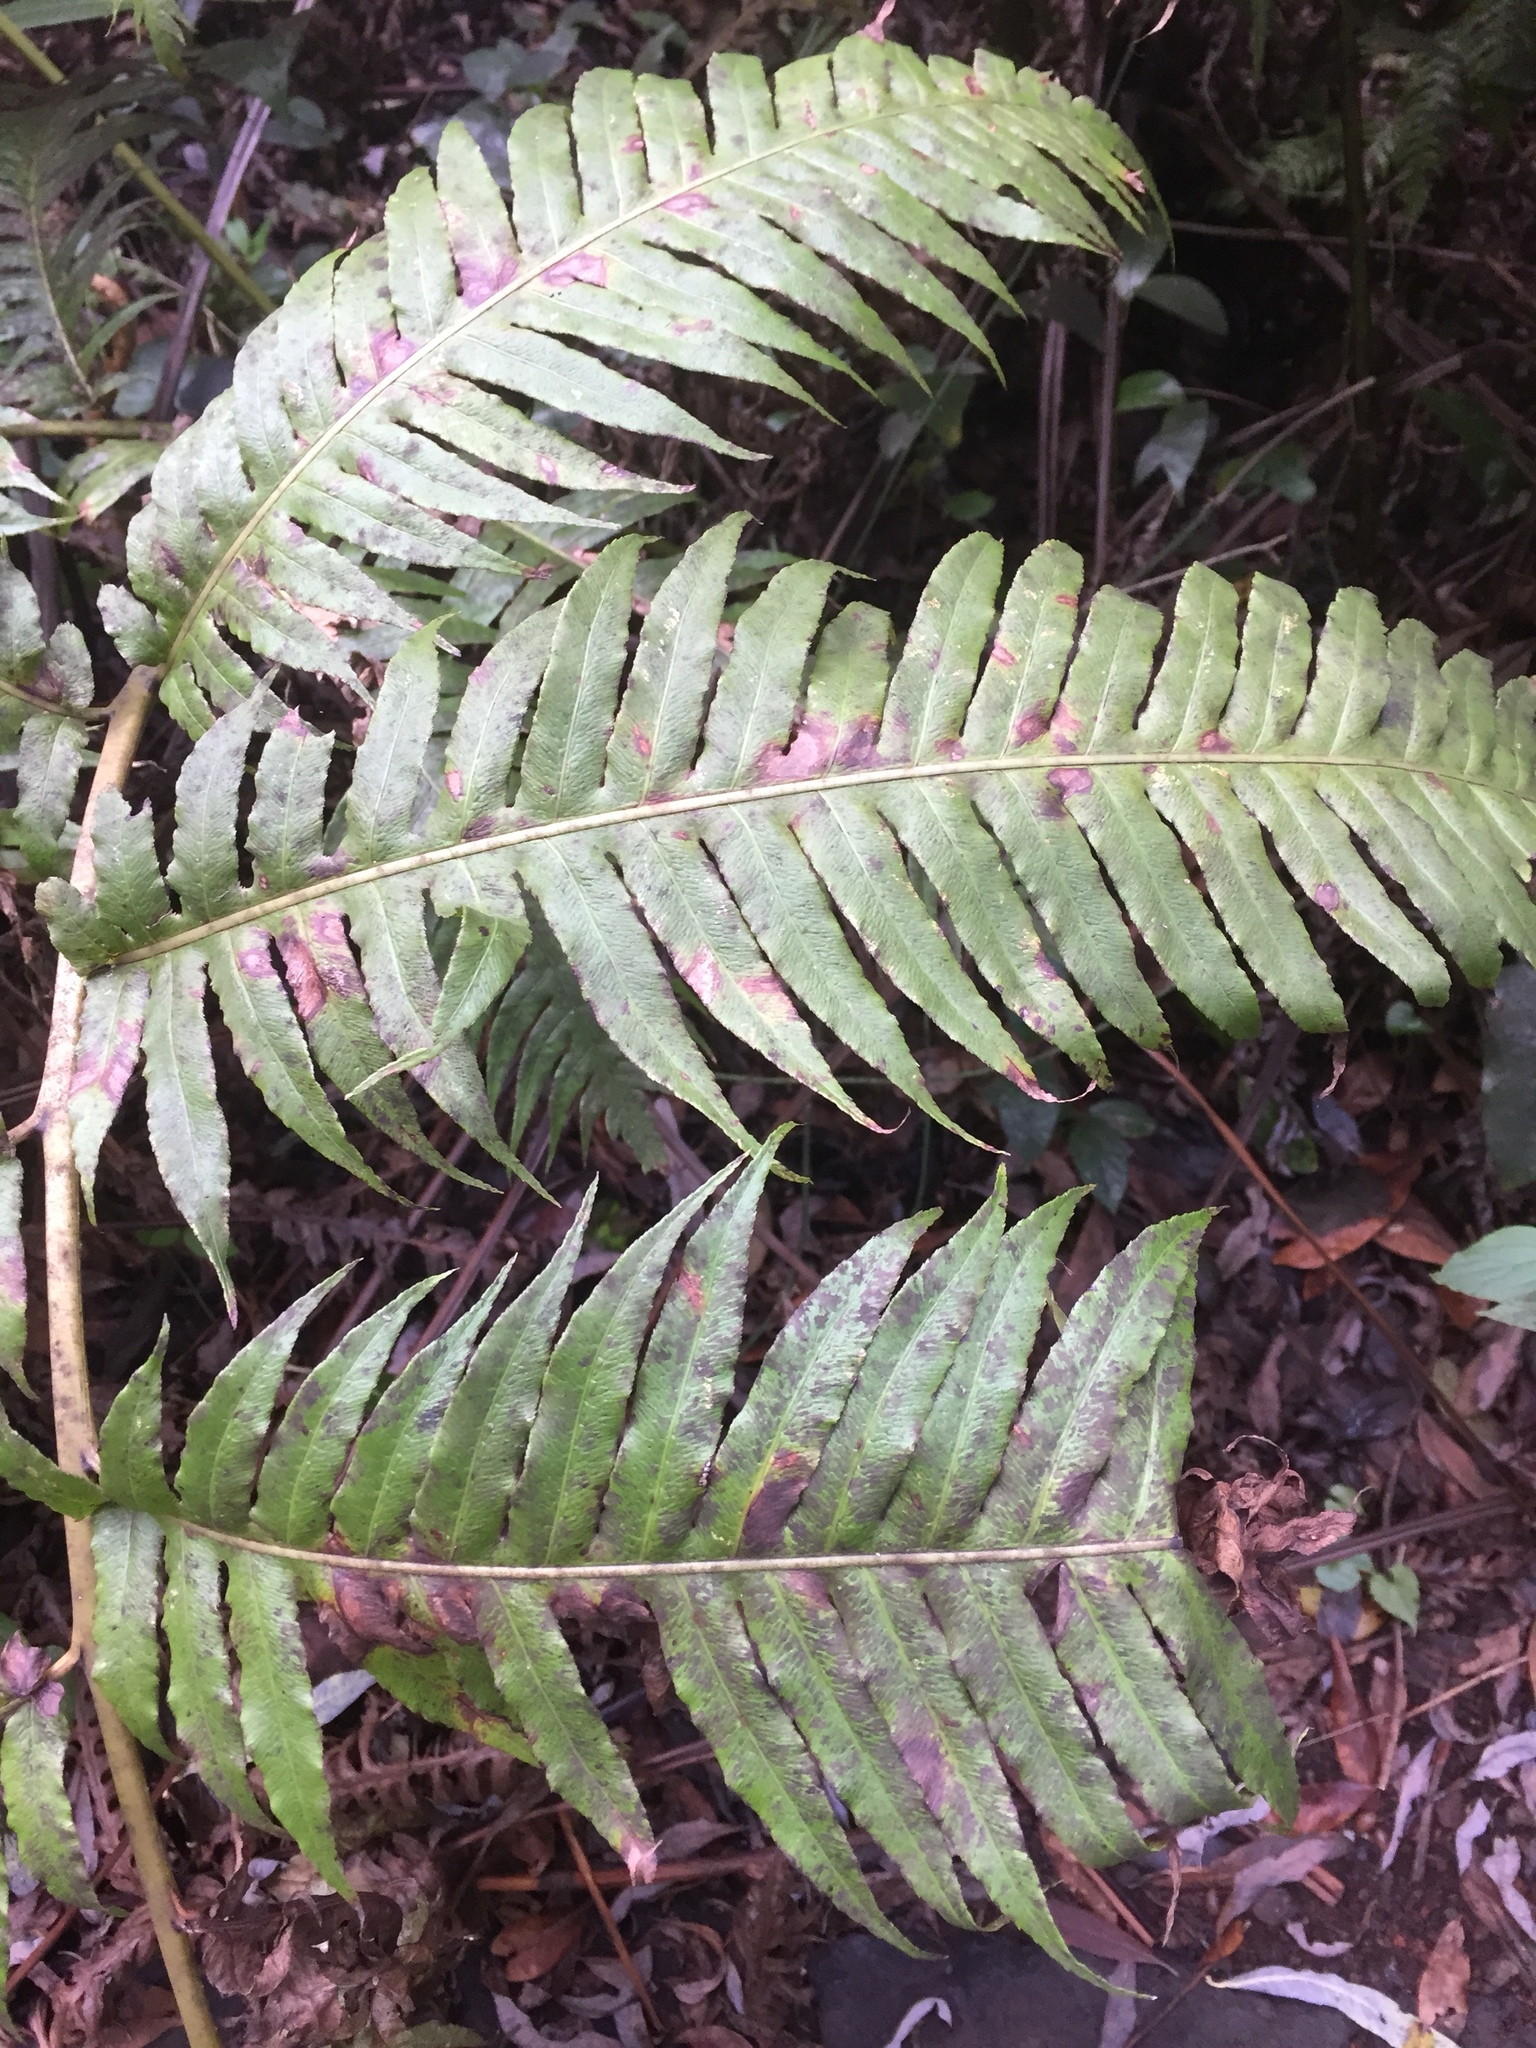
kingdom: Plantae
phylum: Tracheophyta
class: Polypodiopsida
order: Polypodiales
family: Blechnaceae
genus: Woodwardia
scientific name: Woodwardia radicans
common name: Rooting chainfern
